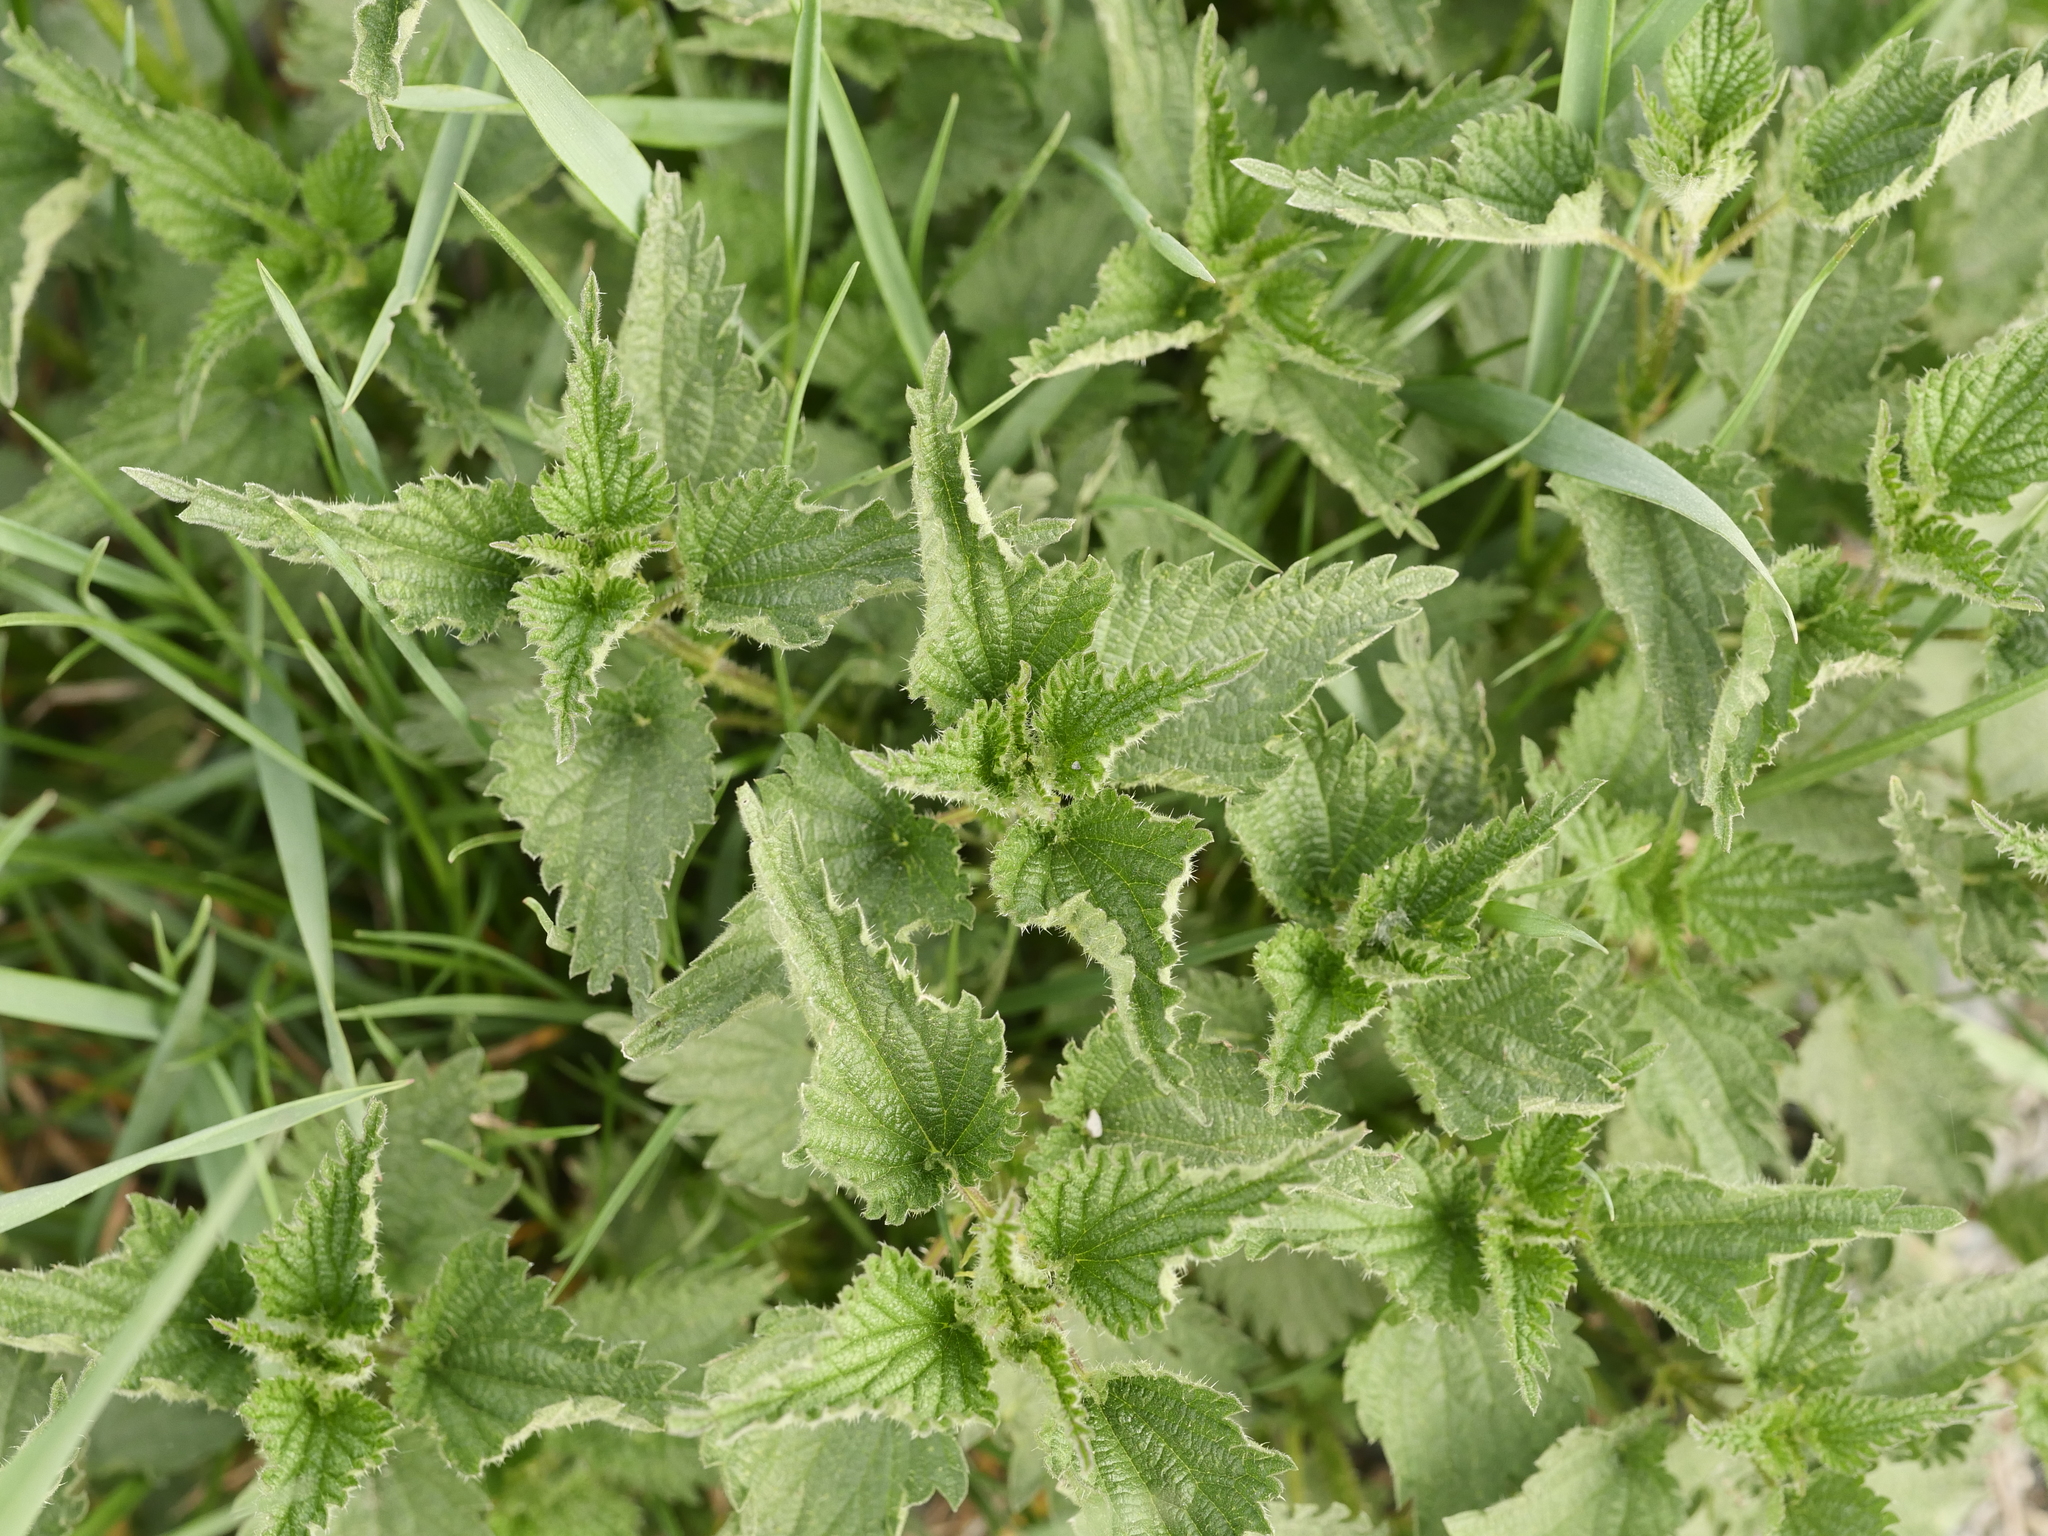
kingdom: Plantae
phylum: Tracheophyta
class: Magnoliopsida
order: Rosales
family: Urticaceae
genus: Urtica
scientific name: Urtica dioica
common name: Common nettle
